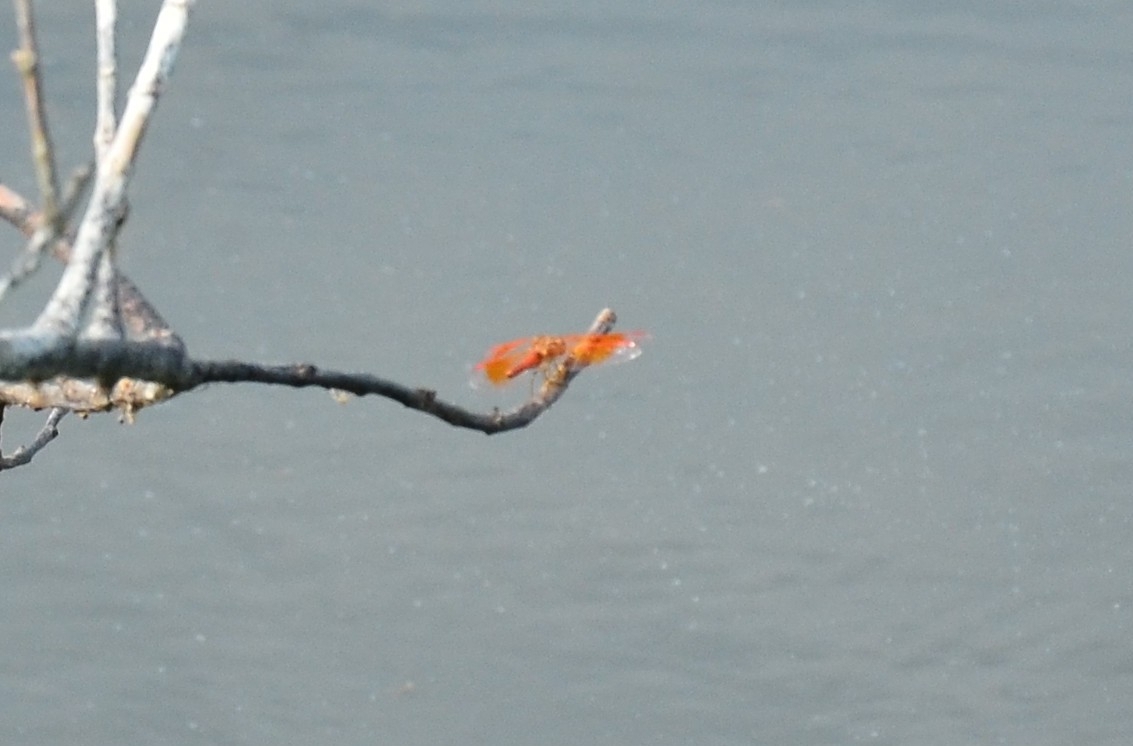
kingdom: Animalia
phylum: Arthropoda
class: Insecta
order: Odonata
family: Libellulidae
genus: Brachythemis
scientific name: Brachythemis contaminata
